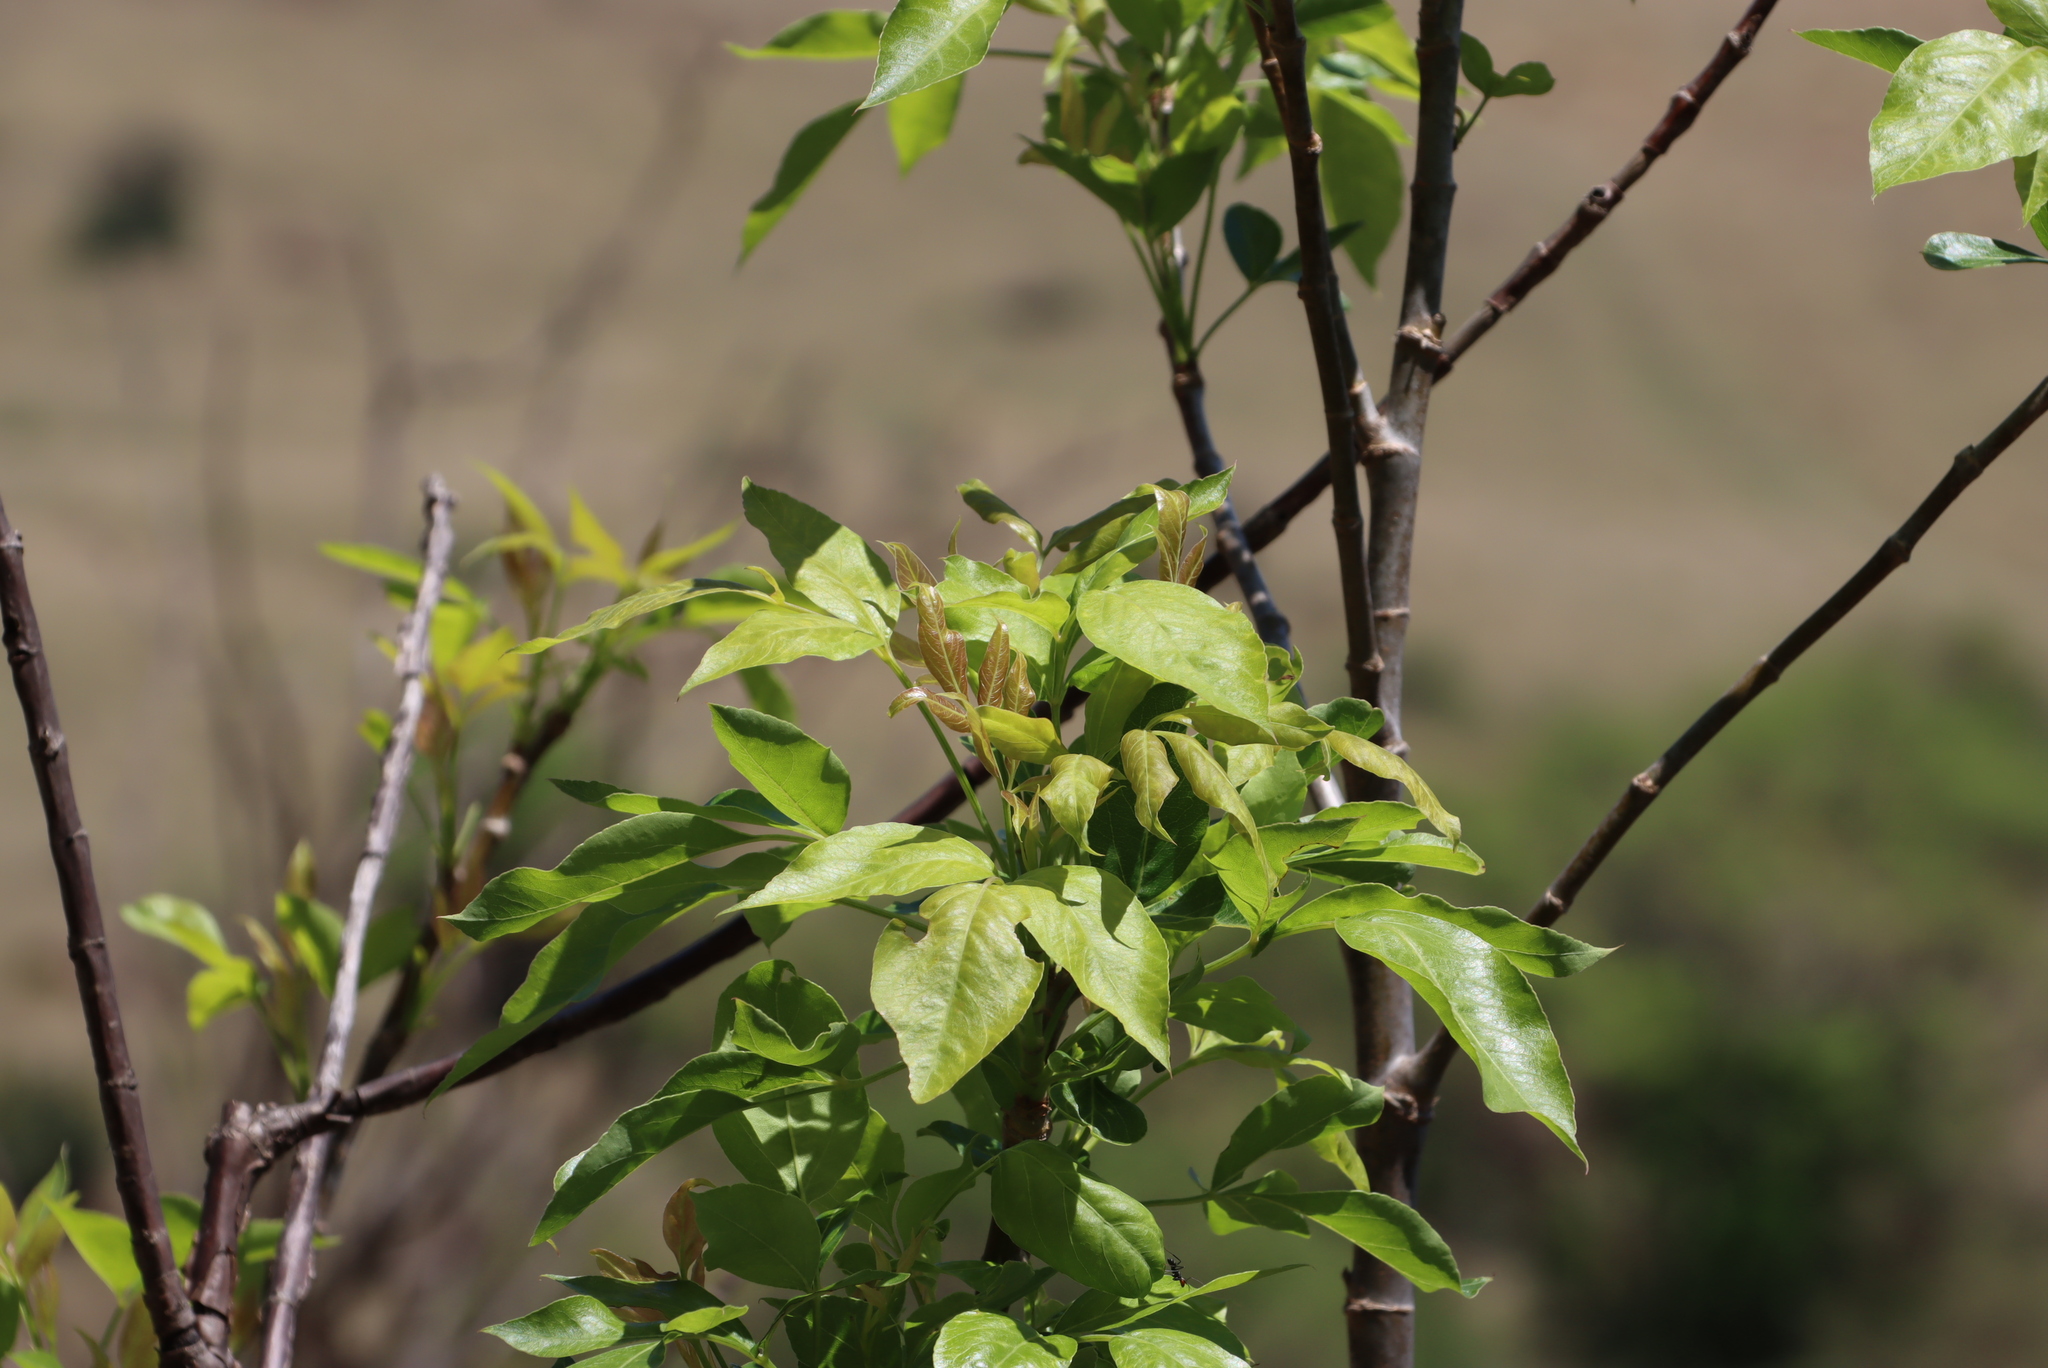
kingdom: Plantae
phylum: Tracheophyta
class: Magnoliopsida
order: Apiales
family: Apiaceae
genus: Heteromorpha
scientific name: Heteromorpha arborescens
